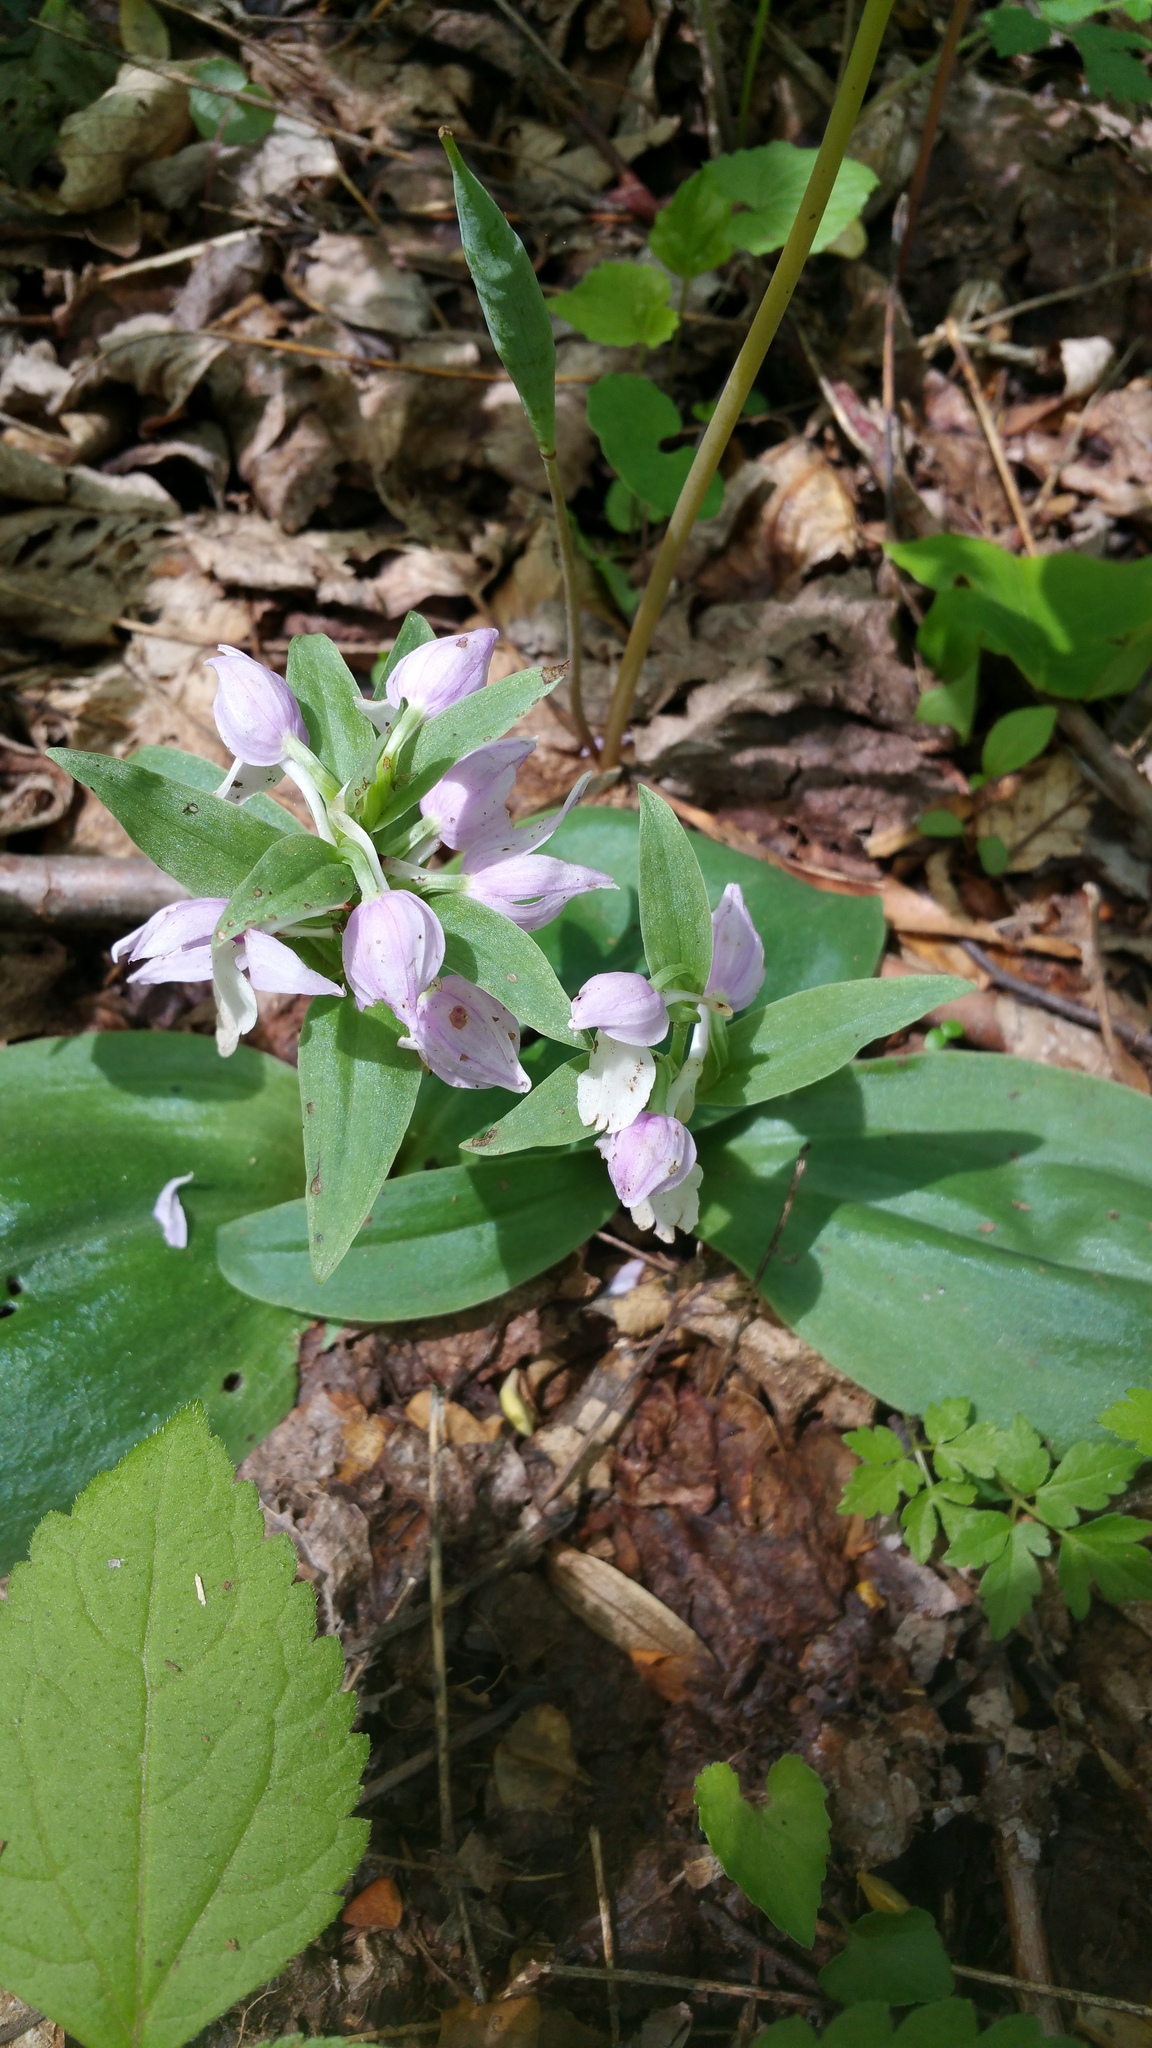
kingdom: Plantae
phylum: Tracheophyta
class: Liliopsida
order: Asparagales
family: Orchidaceae
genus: Galearis
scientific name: Galearis spectabilis
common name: Purple-hooded orchis
